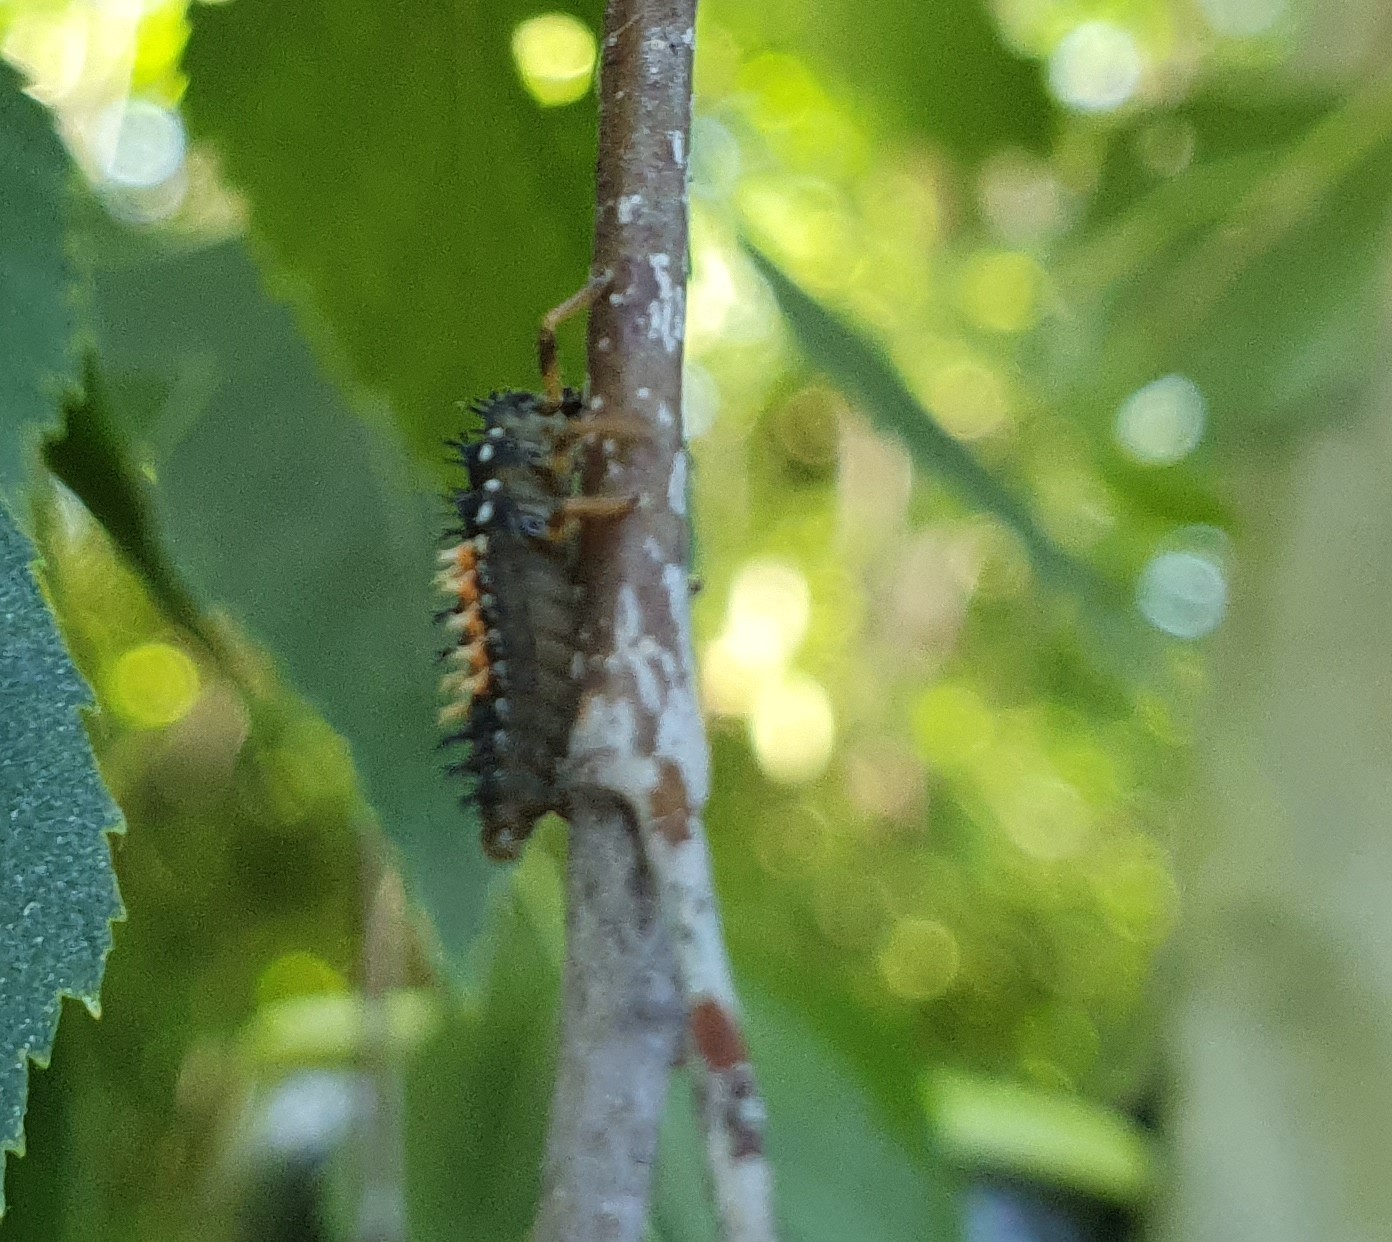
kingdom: Animalia
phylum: Arthropoda
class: Insecta
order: Coleoptera
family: Coccinellidae
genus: Harmonia
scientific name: Harmonia axyridis
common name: Harlequin ladybird
